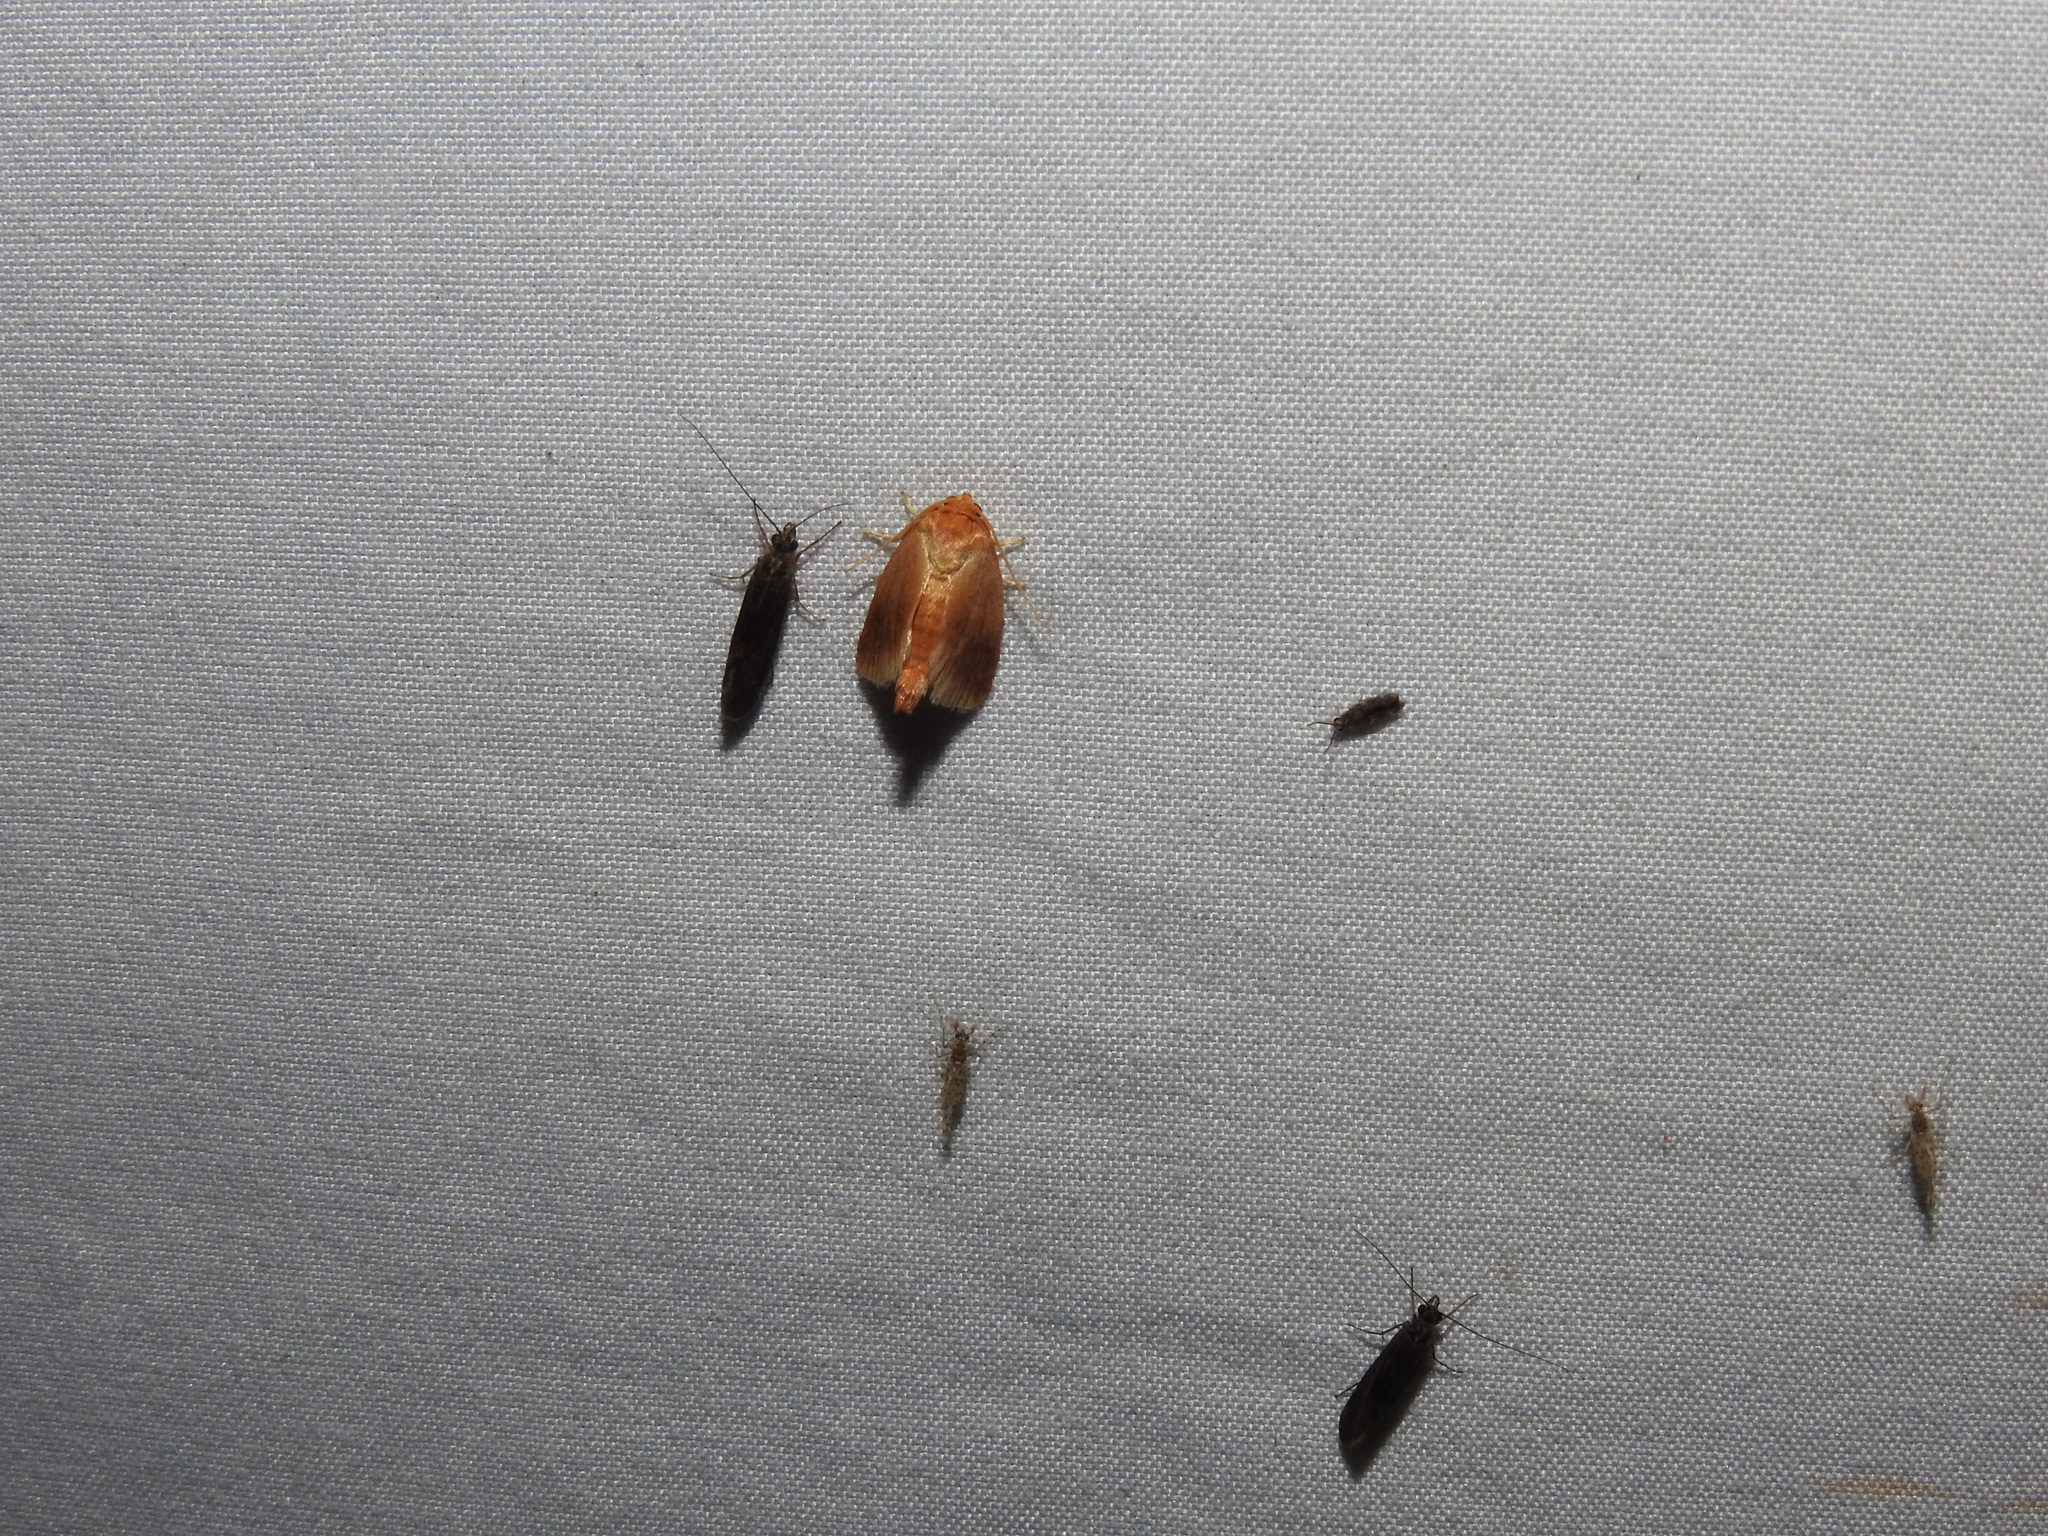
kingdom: Animalia
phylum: Arthropoda
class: Insecta
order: Lepidoptera
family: Limacodidae
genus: Tortricidia
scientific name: Tortricidia testacea
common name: Early button slug moth
